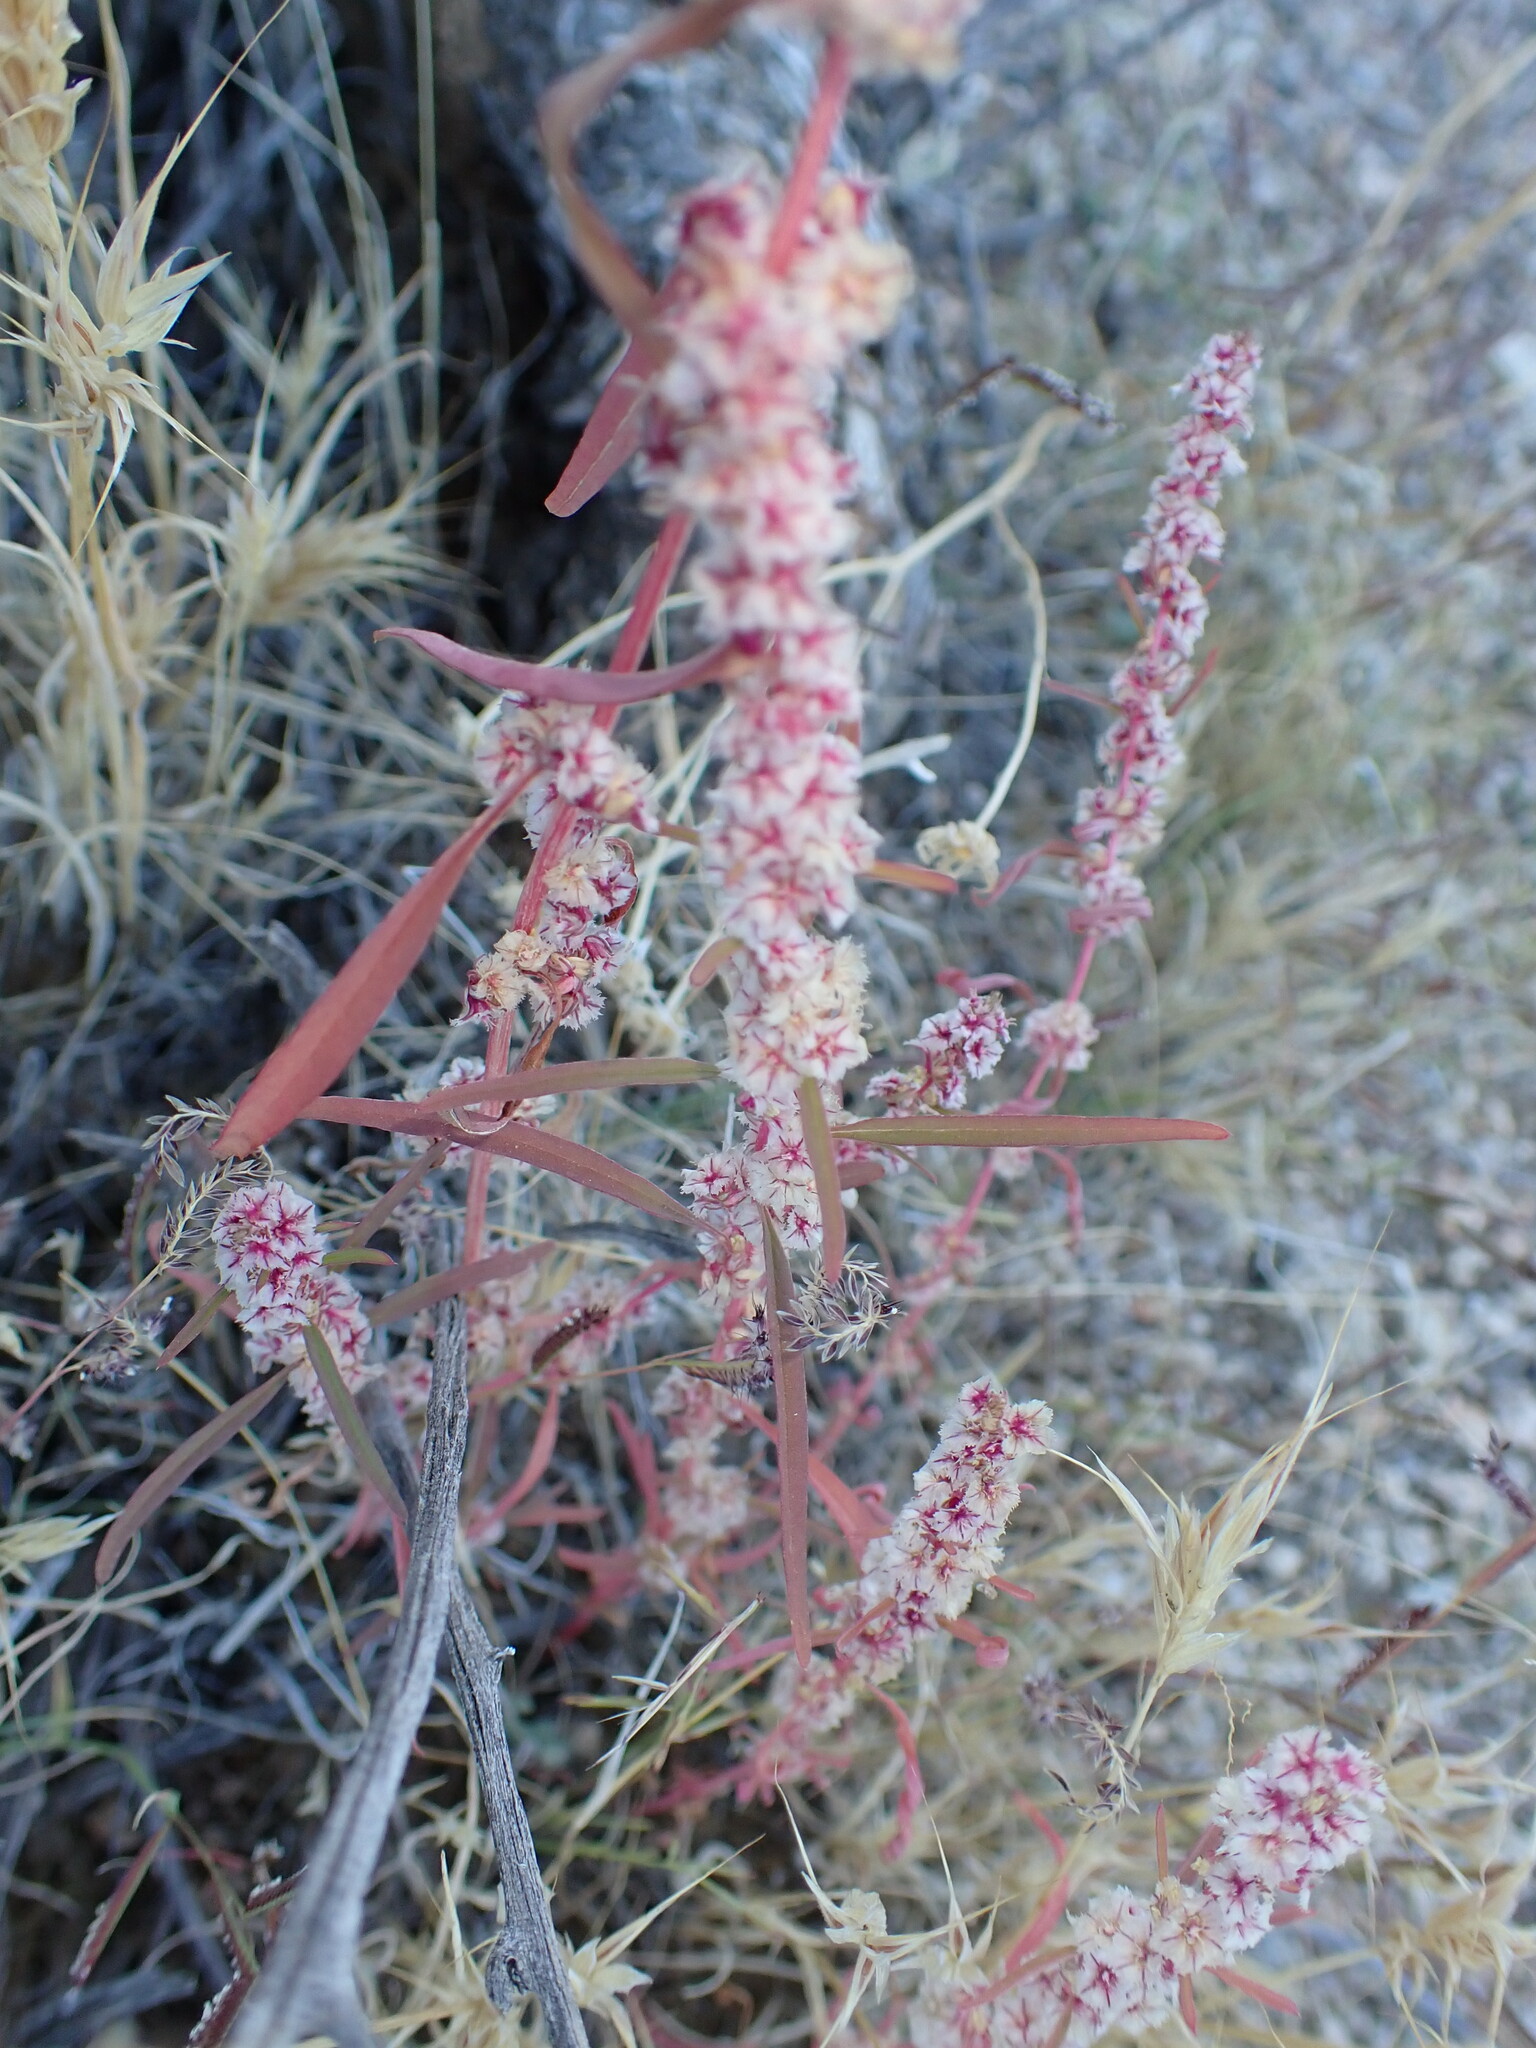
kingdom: Plantae
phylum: Tracheophyta
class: Magnoliopsida
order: Caryophyllales
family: Amaranthaceae
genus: Amaranthus
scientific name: Amaranthus fimbriatus
